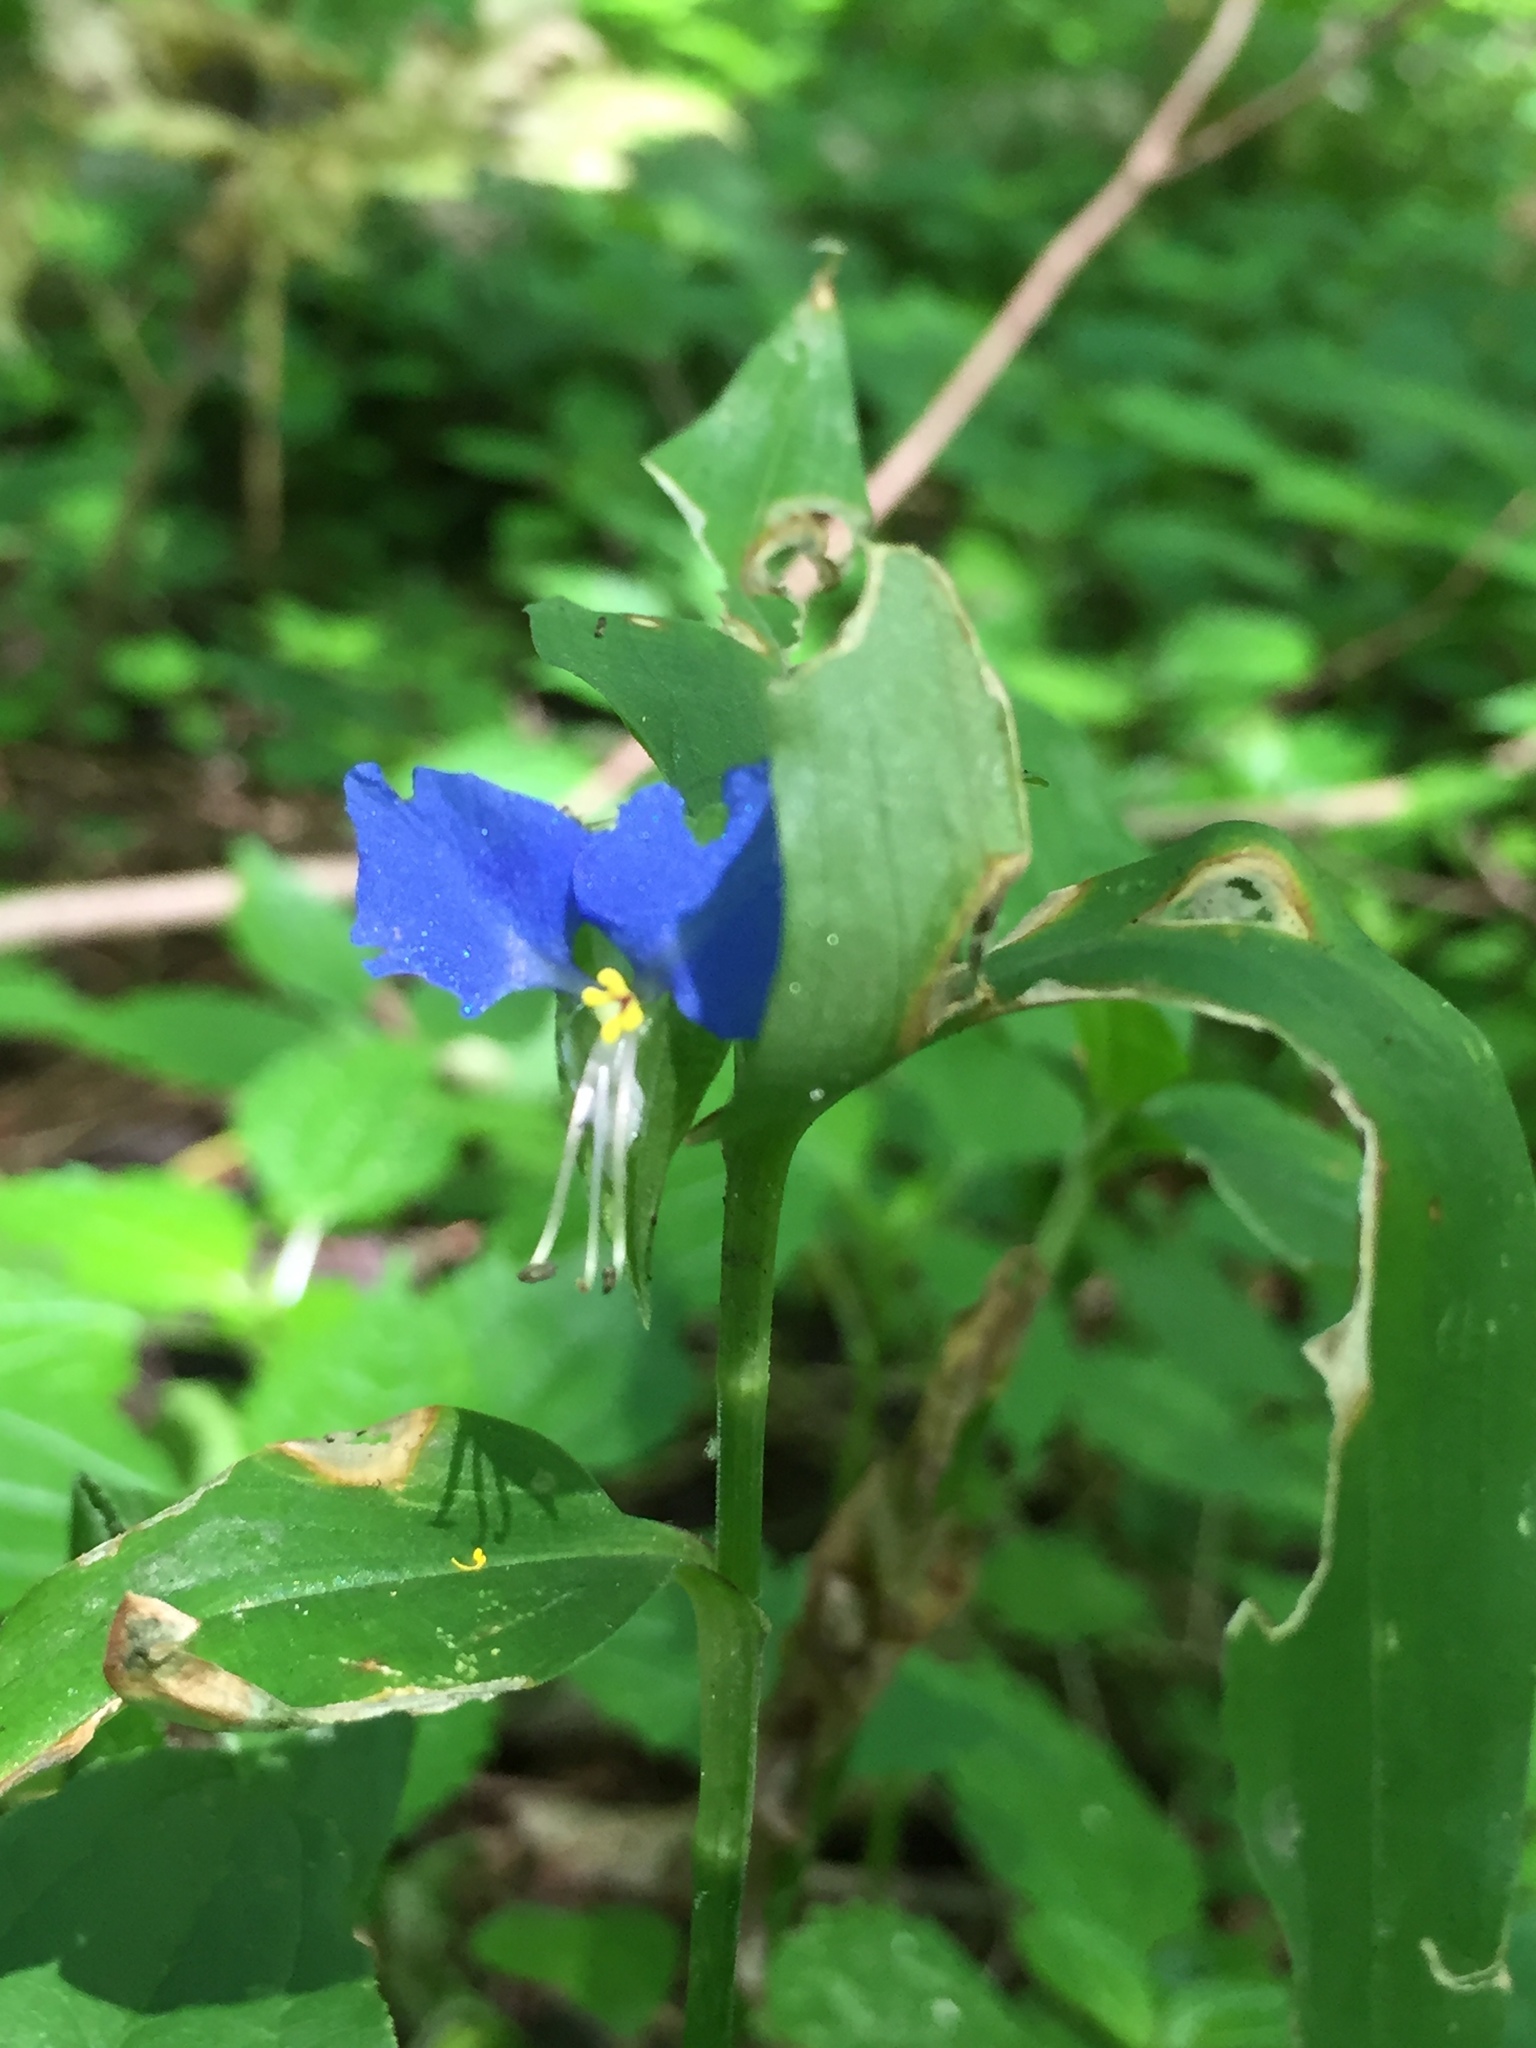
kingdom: Plantae
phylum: Tracheophyta
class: Liliopsida
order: Commelinales
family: Commelinaceae
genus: Commelina
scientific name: Commelina communis
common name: Asiatic dayflower
